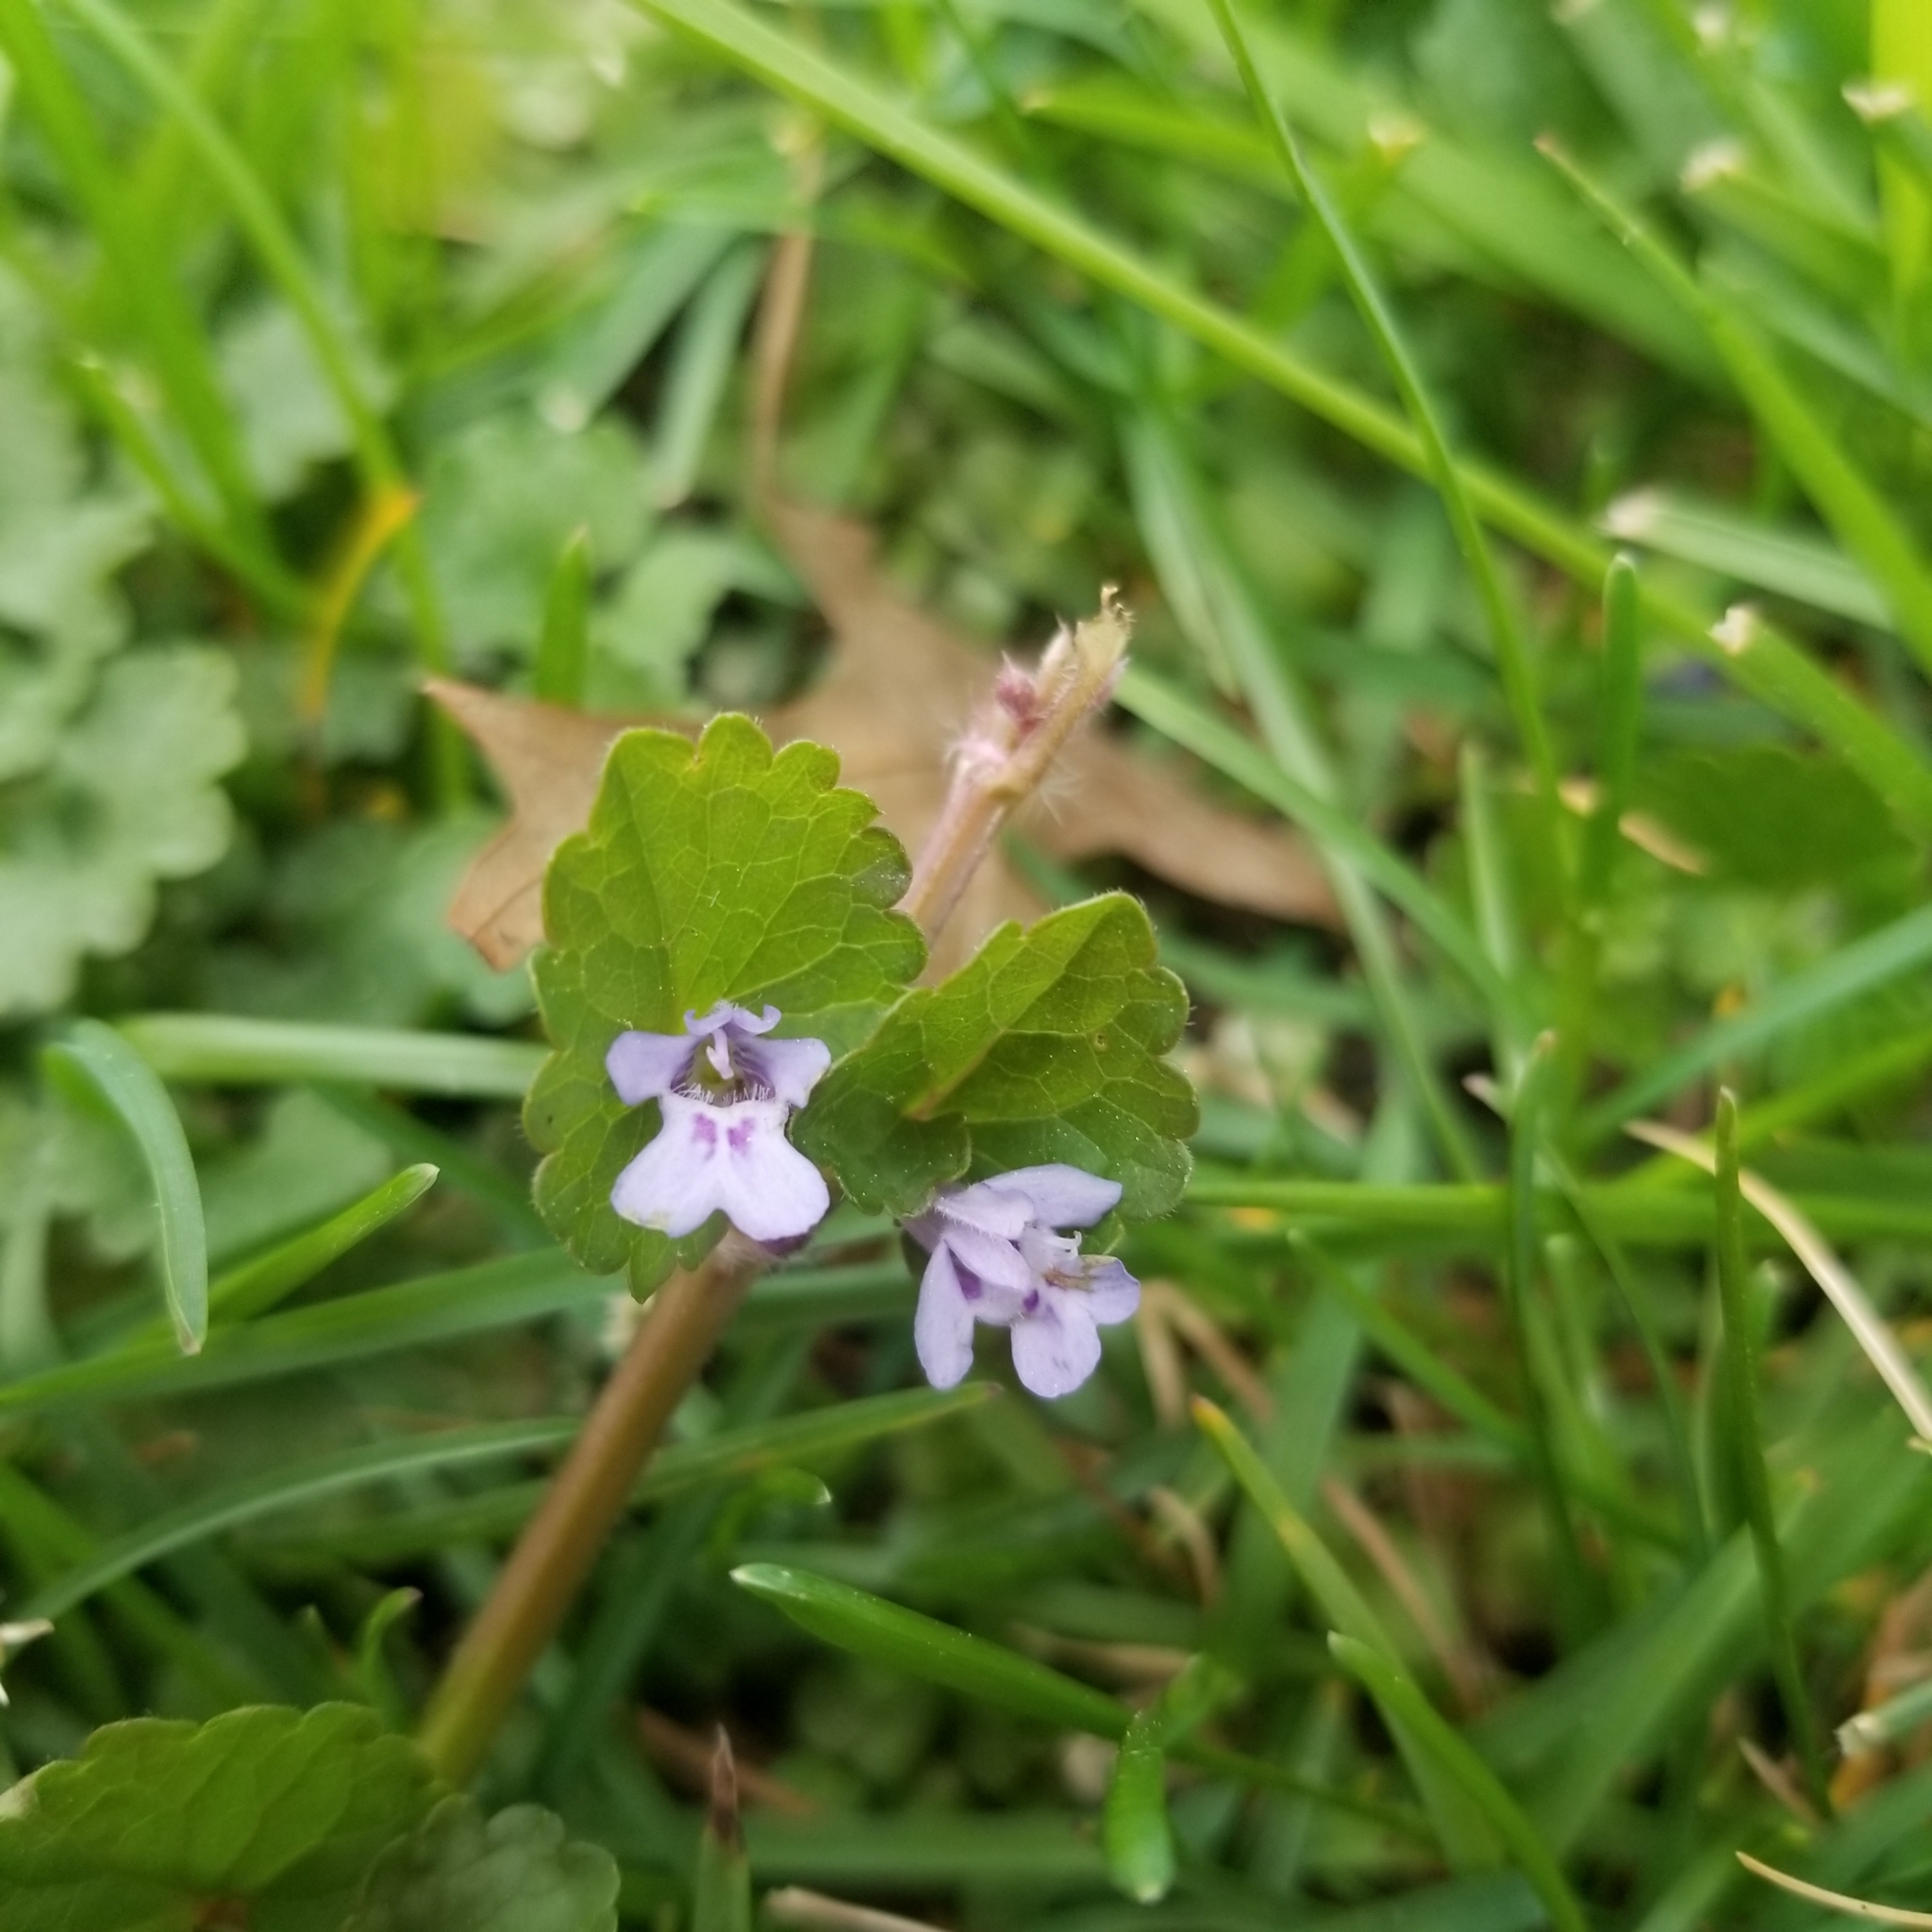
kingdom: Plantae
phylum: Tracheophyta
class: Magnoliopsida
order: Lamiales
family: Lamiaceae
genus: Glechoma
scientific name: Glechoma hederacea
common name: Ground ivy
